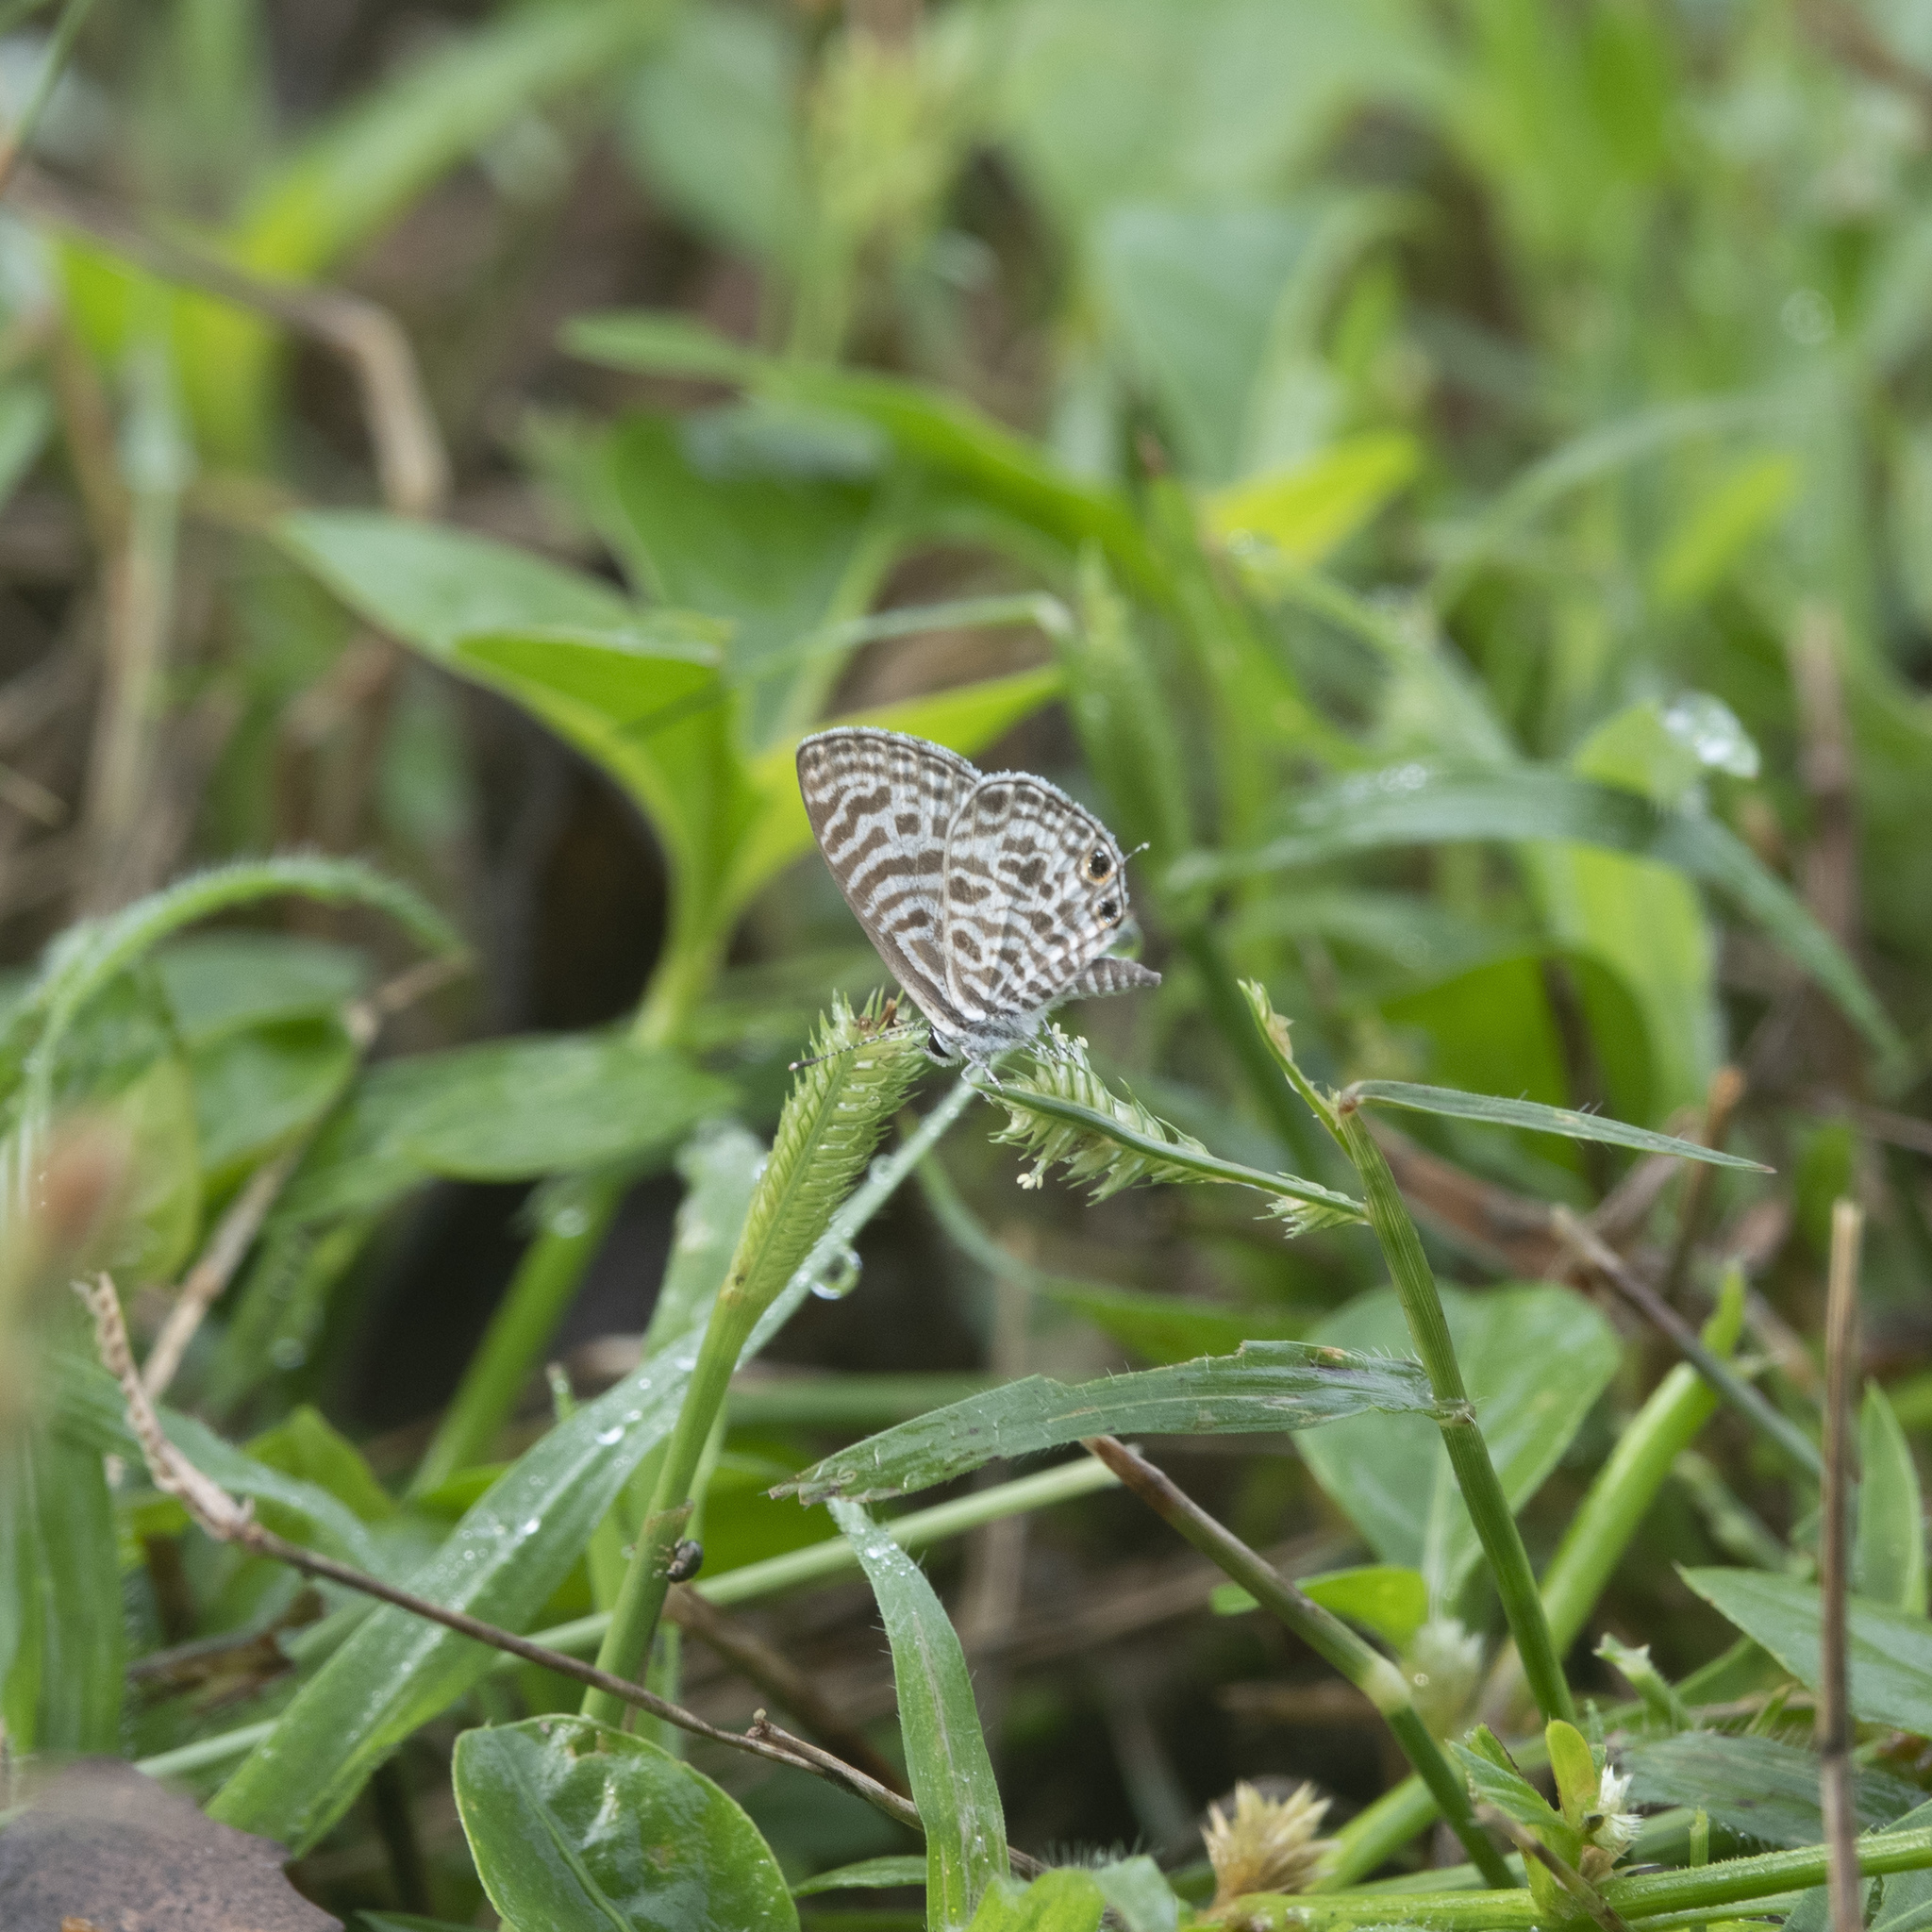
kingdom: Animalia
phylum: Arthropoda
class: Insecta
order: Lepidoptera
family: Lycaenidae
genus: Leptotes
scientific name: Leptotes plinius
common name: Zebra blue
